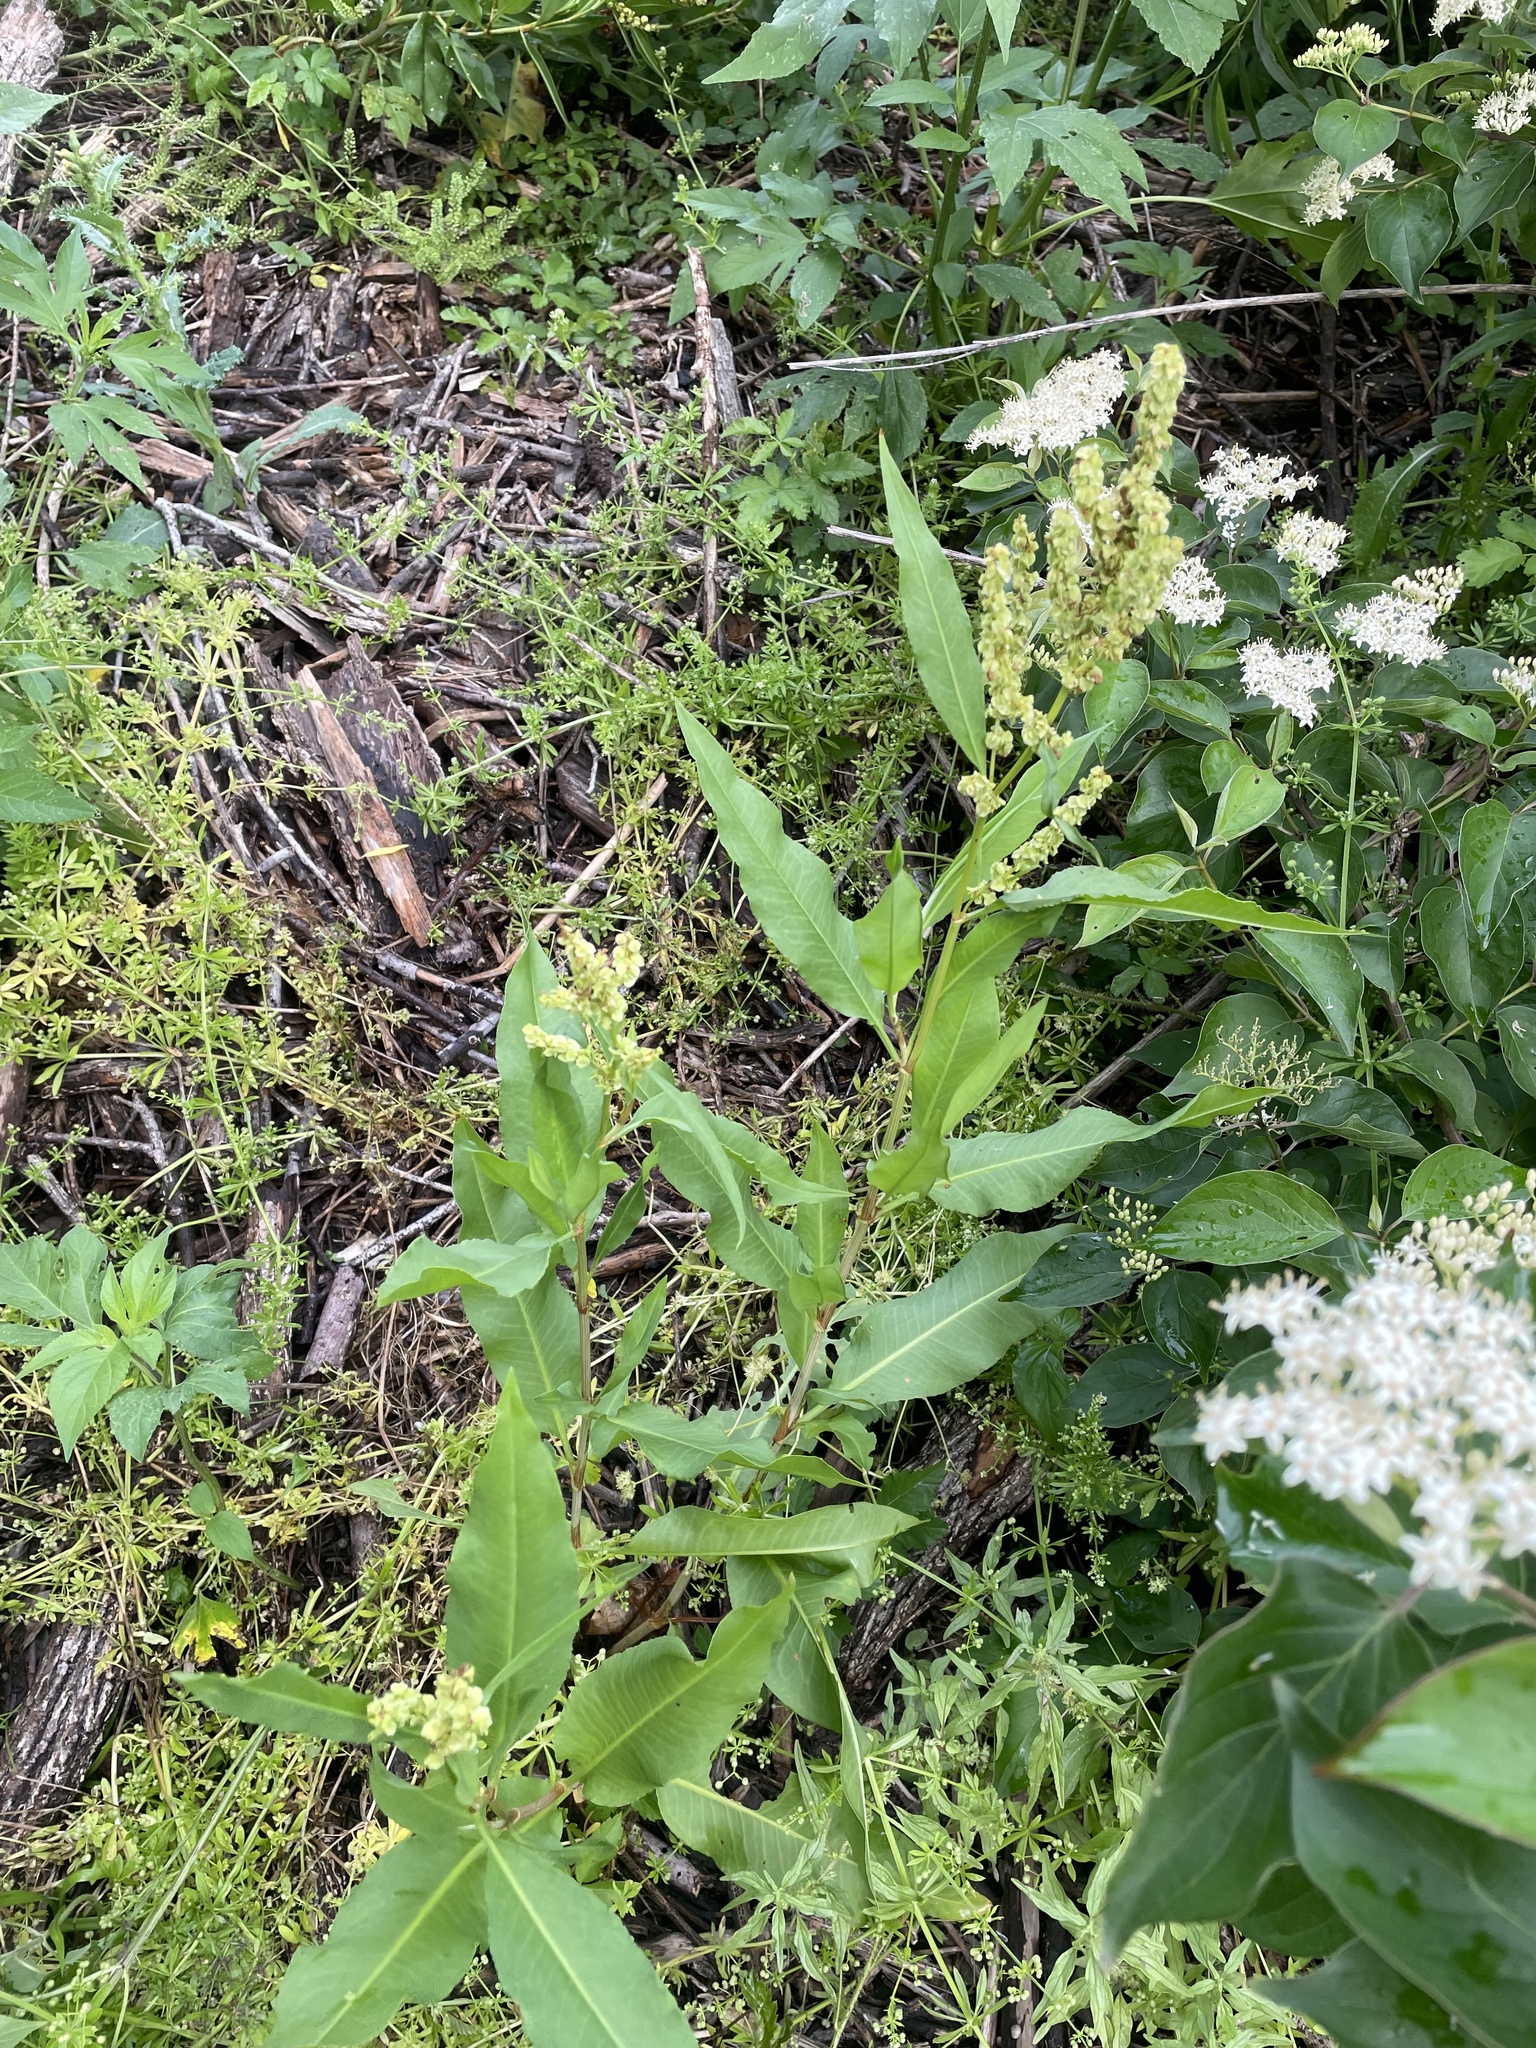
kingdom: Plantae
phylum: Tracheophyta
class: Magnoliopsida
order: Caryophyllales
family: Polygonaceae
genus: Rumex
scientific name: Rumex altissimus
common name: Smooth dock
